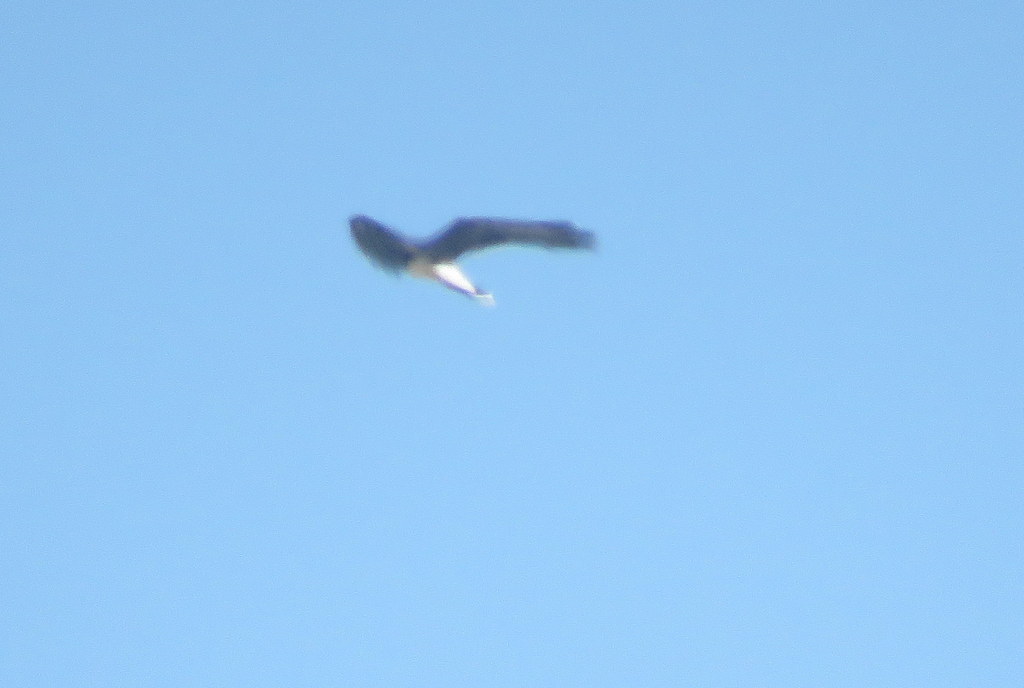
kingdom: Animalia
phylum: Chordata
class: Aves
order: Falconiformes
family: Falconidae
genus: Daptrius
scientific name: Daptrius
